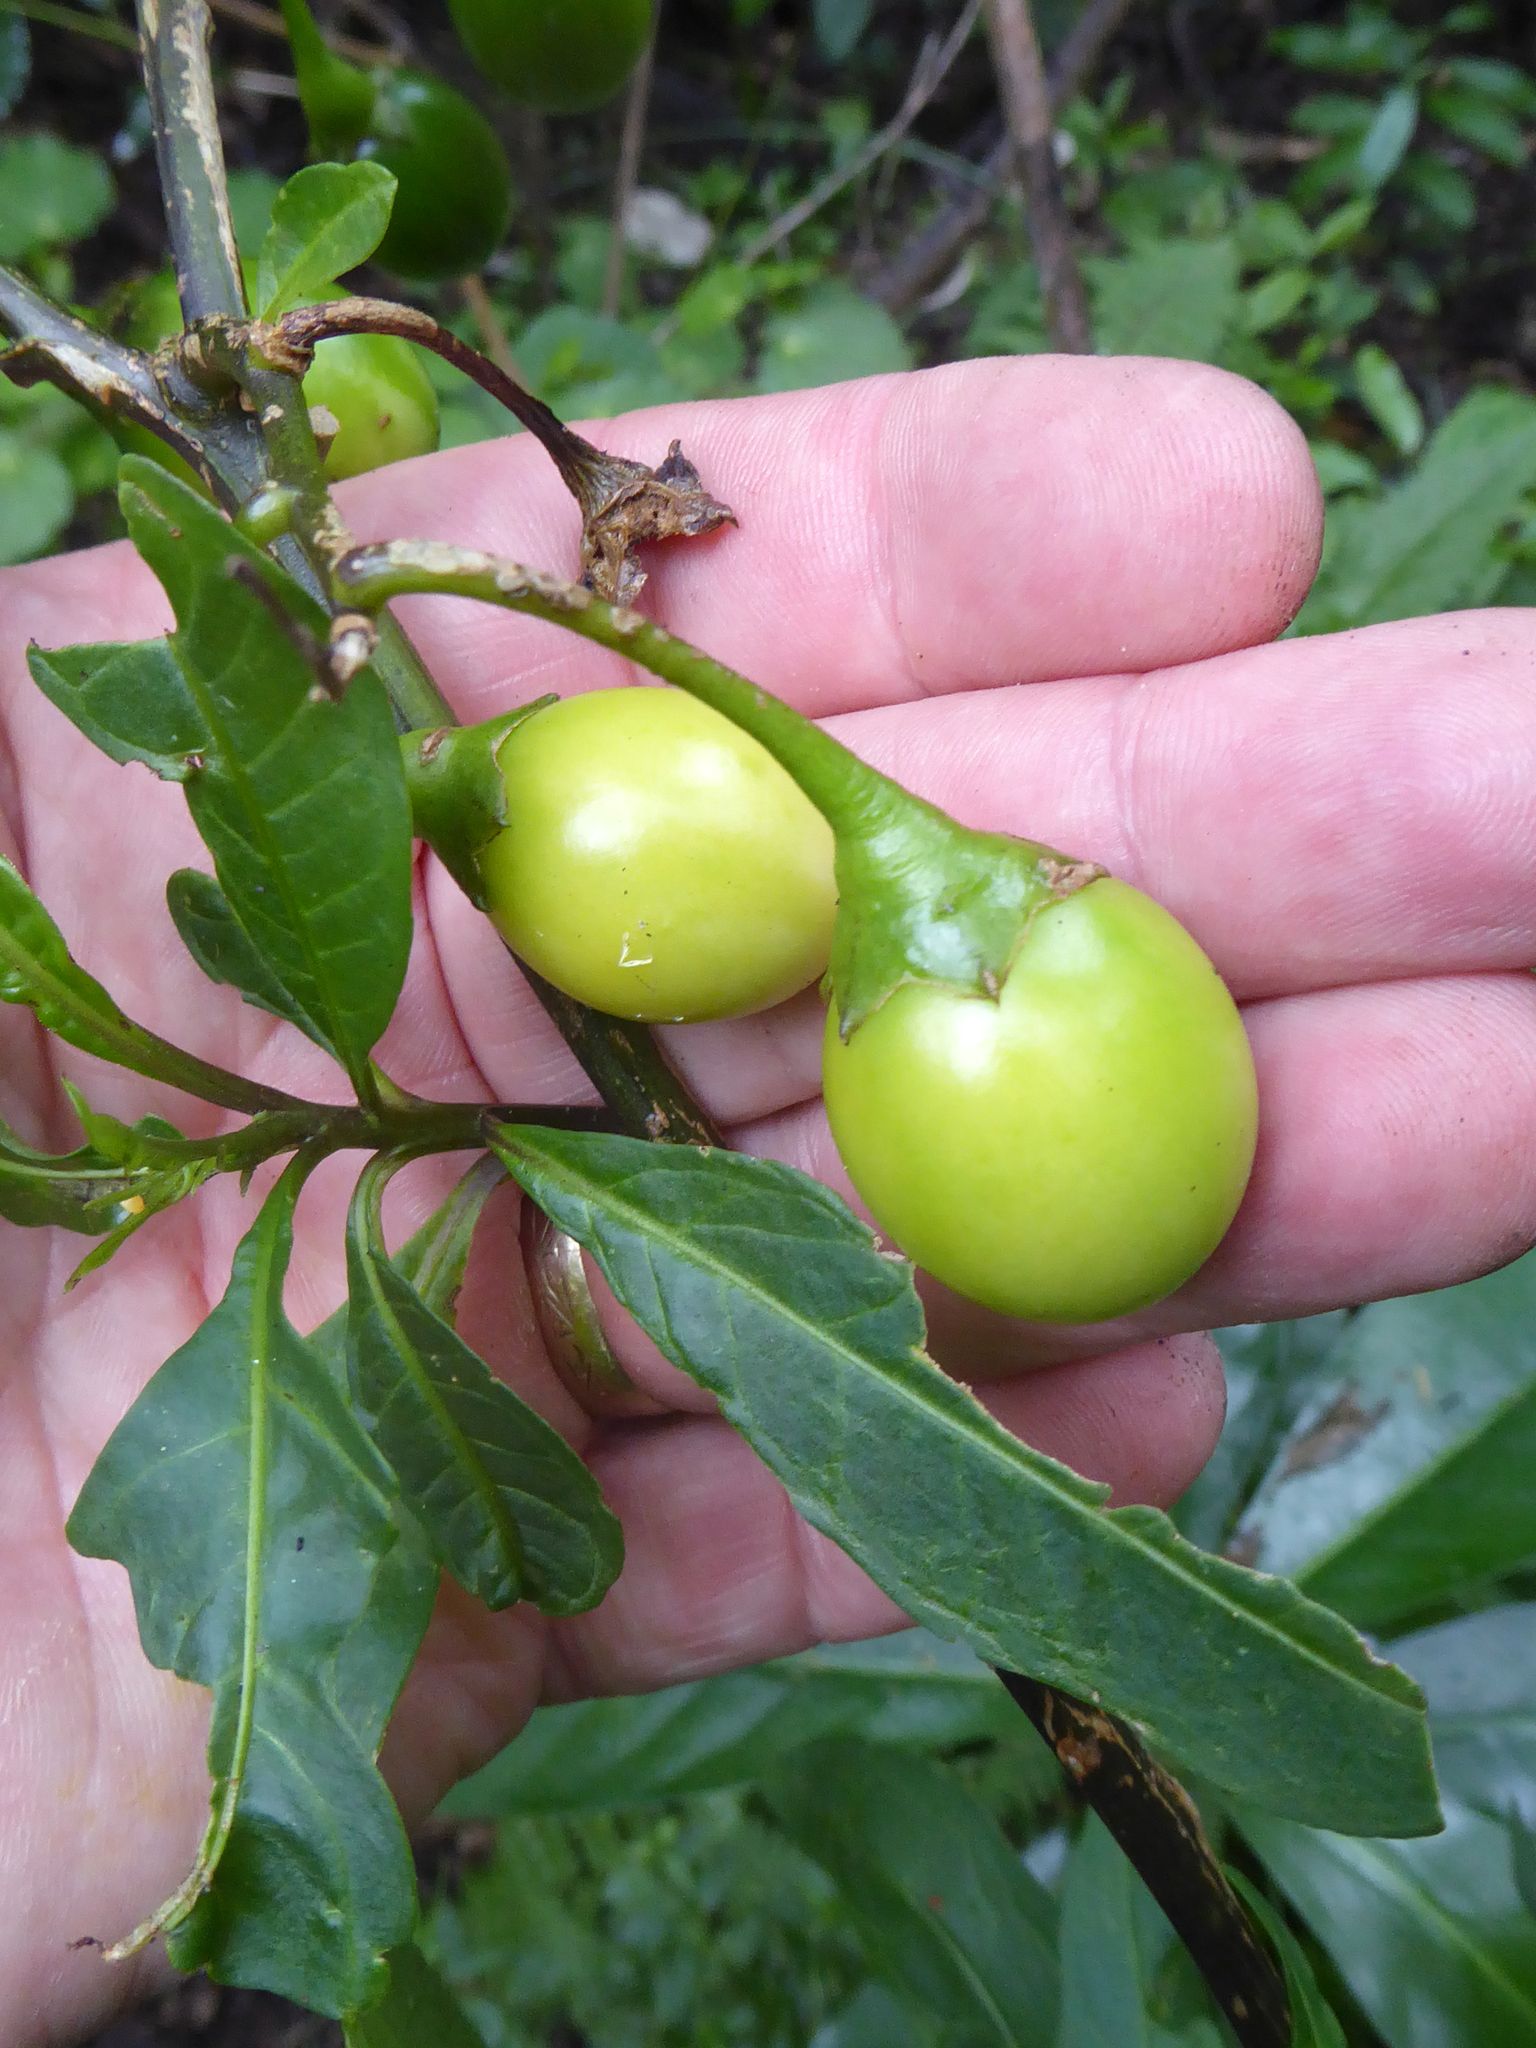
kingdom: Plantae
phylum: Tracheophyta
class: Magnoliopsida
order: Solanales
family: Solanaceae
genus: Solanum
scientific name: Solanum laciniatum
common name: Kangaroo-apple
